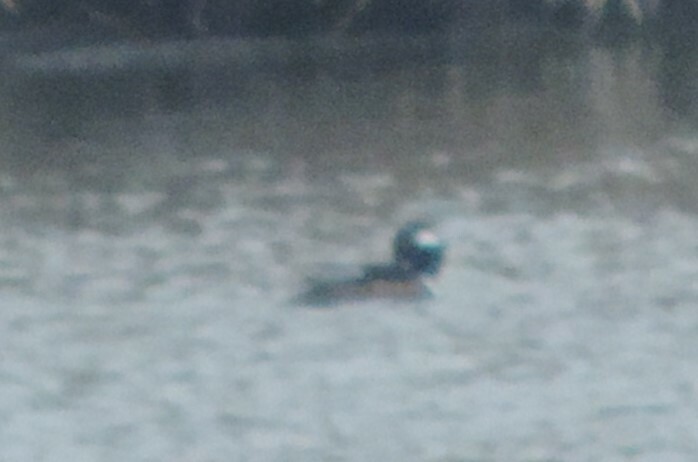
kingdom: Animalia
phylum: Chordata
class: Aves
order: Anseriformes
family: Anatidae
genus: Lophodytes
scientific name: Lophodytes cucullatus
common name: Hooded merganser
